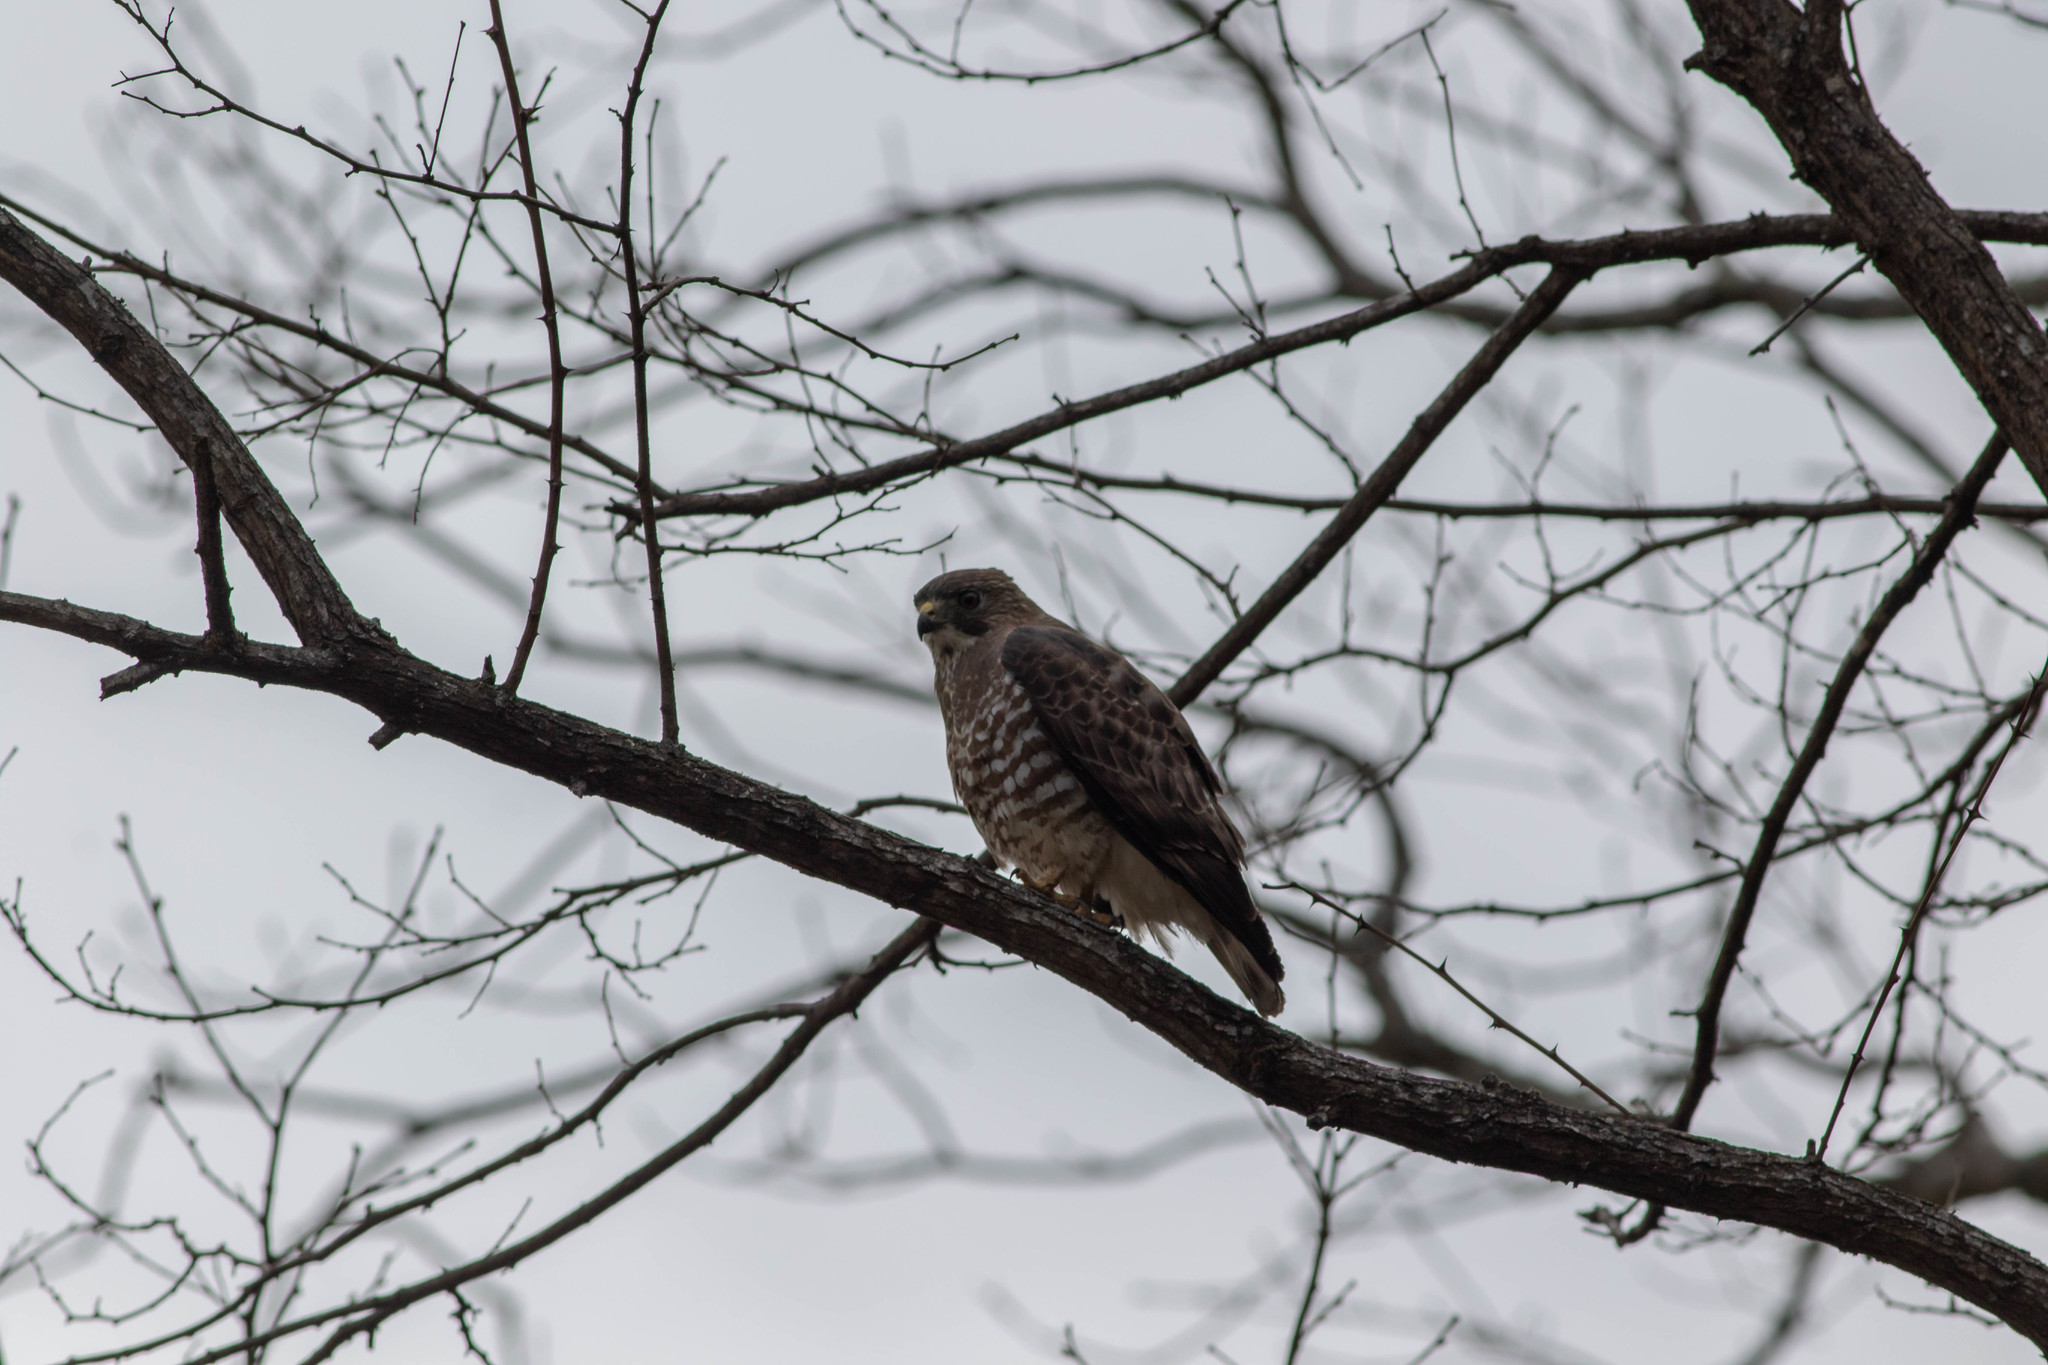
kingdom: Animalia
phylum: Chordata
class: Aves
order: Accipitriformes
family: Accipitridae
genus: Buteo
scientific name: Buteo platypterus
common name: Broad-winged hawk
